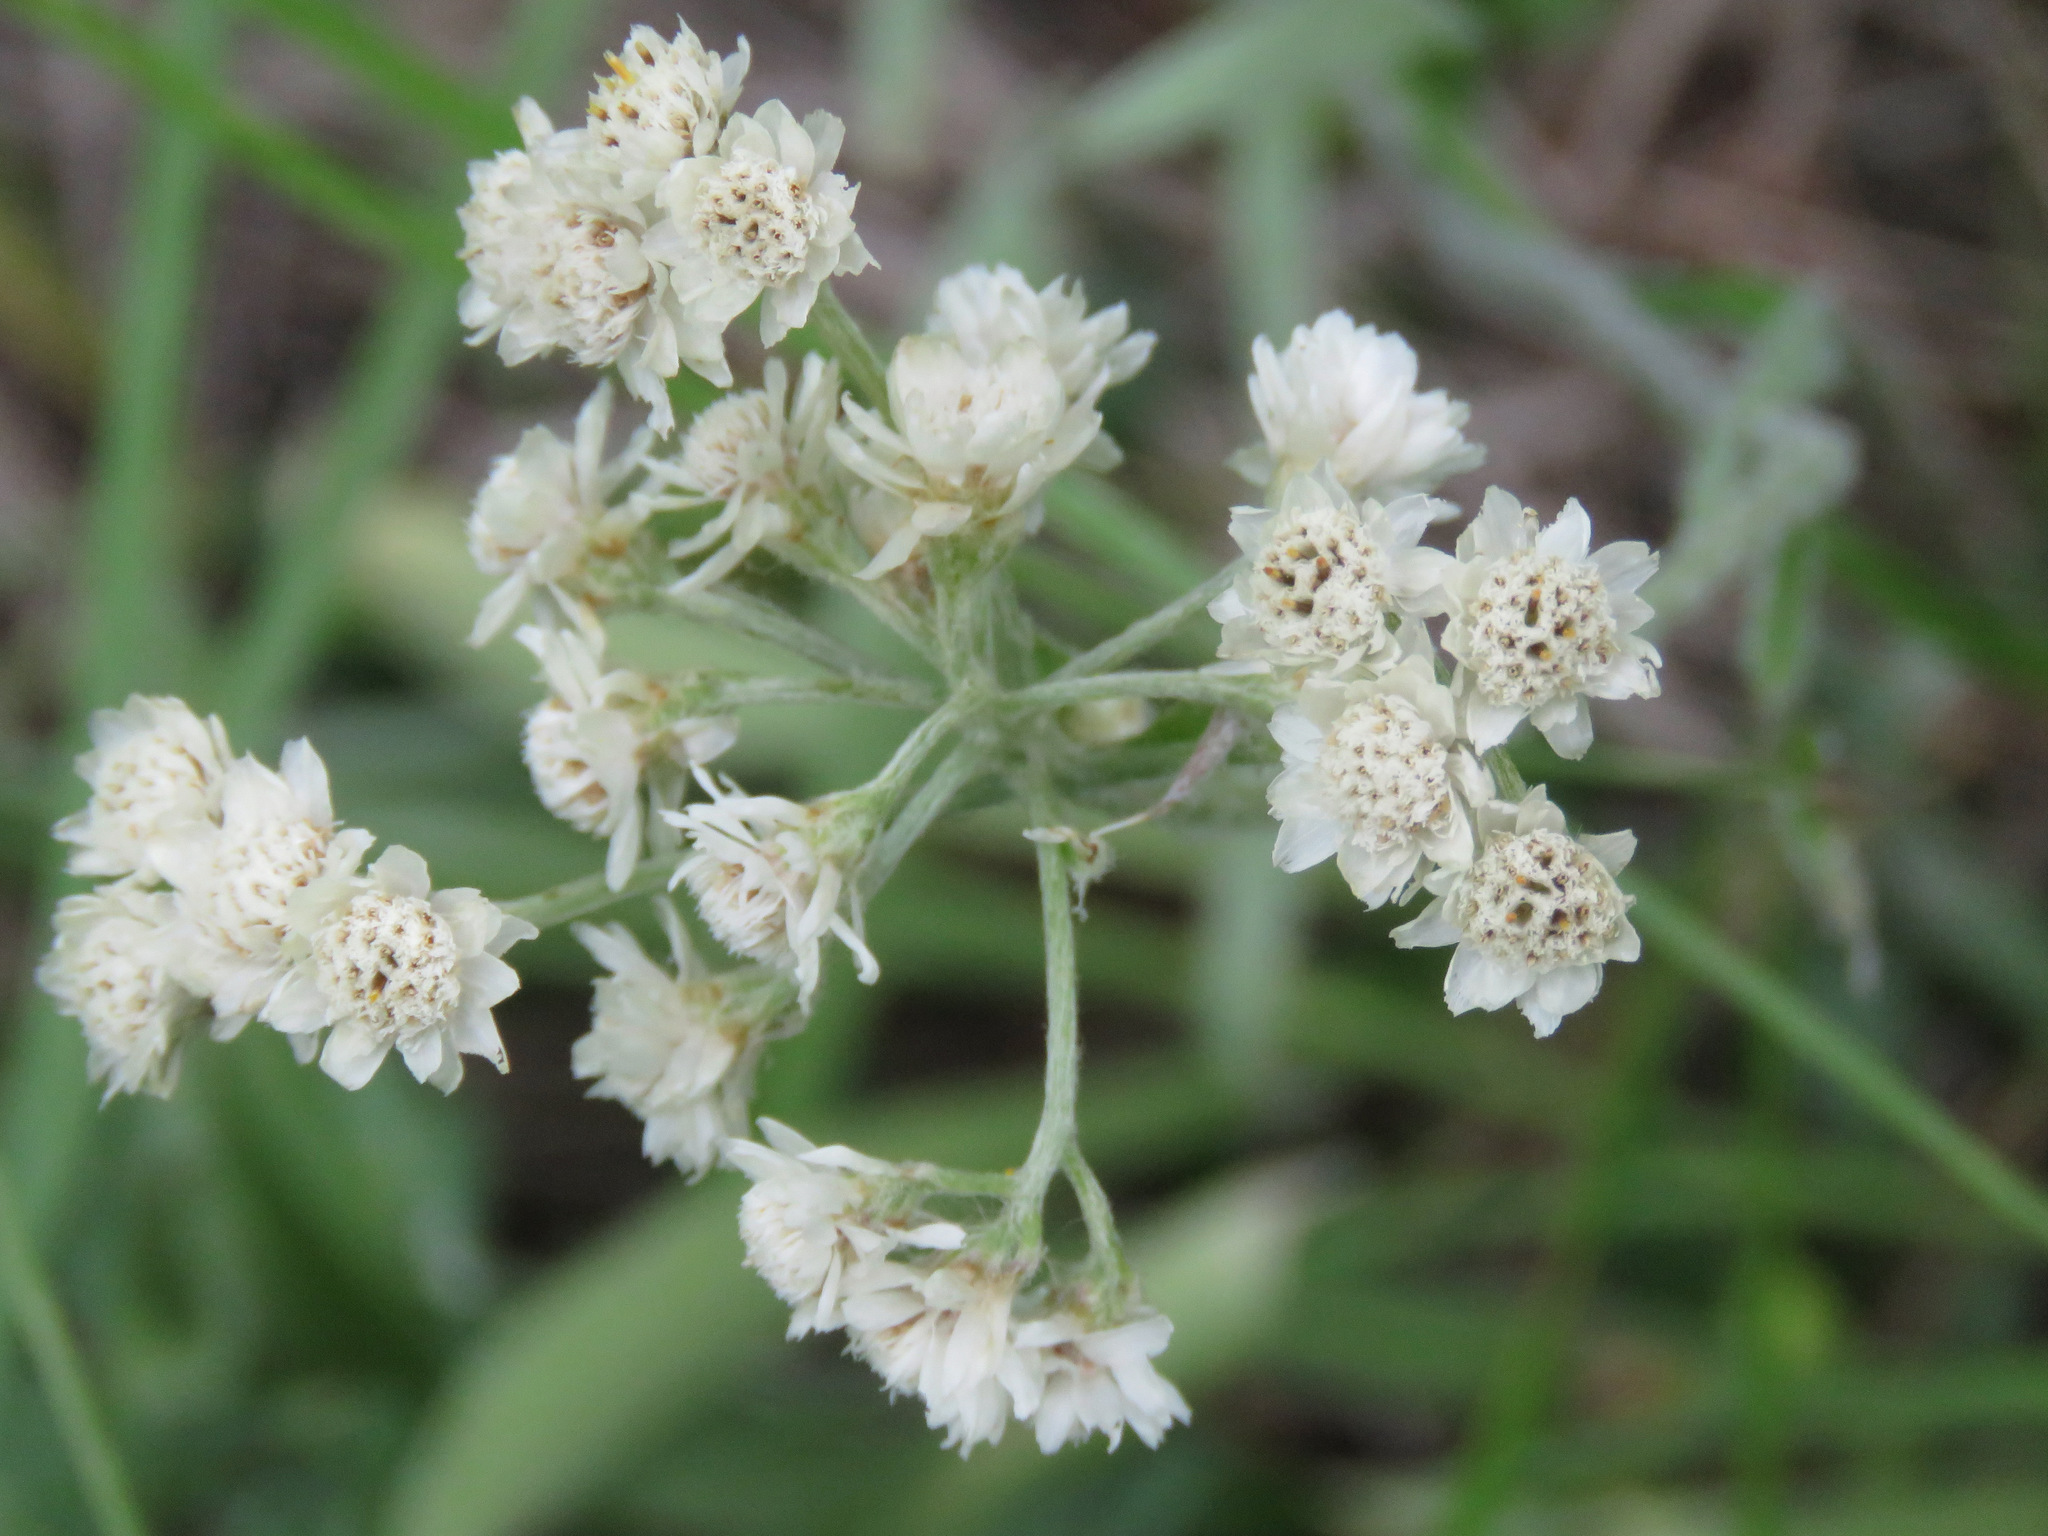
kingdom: Plantae
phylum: Tracheophyta
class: Magnoliopsida
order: Asterales
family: Asteraceae
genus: Anaphalis
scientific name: Anaphalis margaritacea
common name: Pearly everlasting
